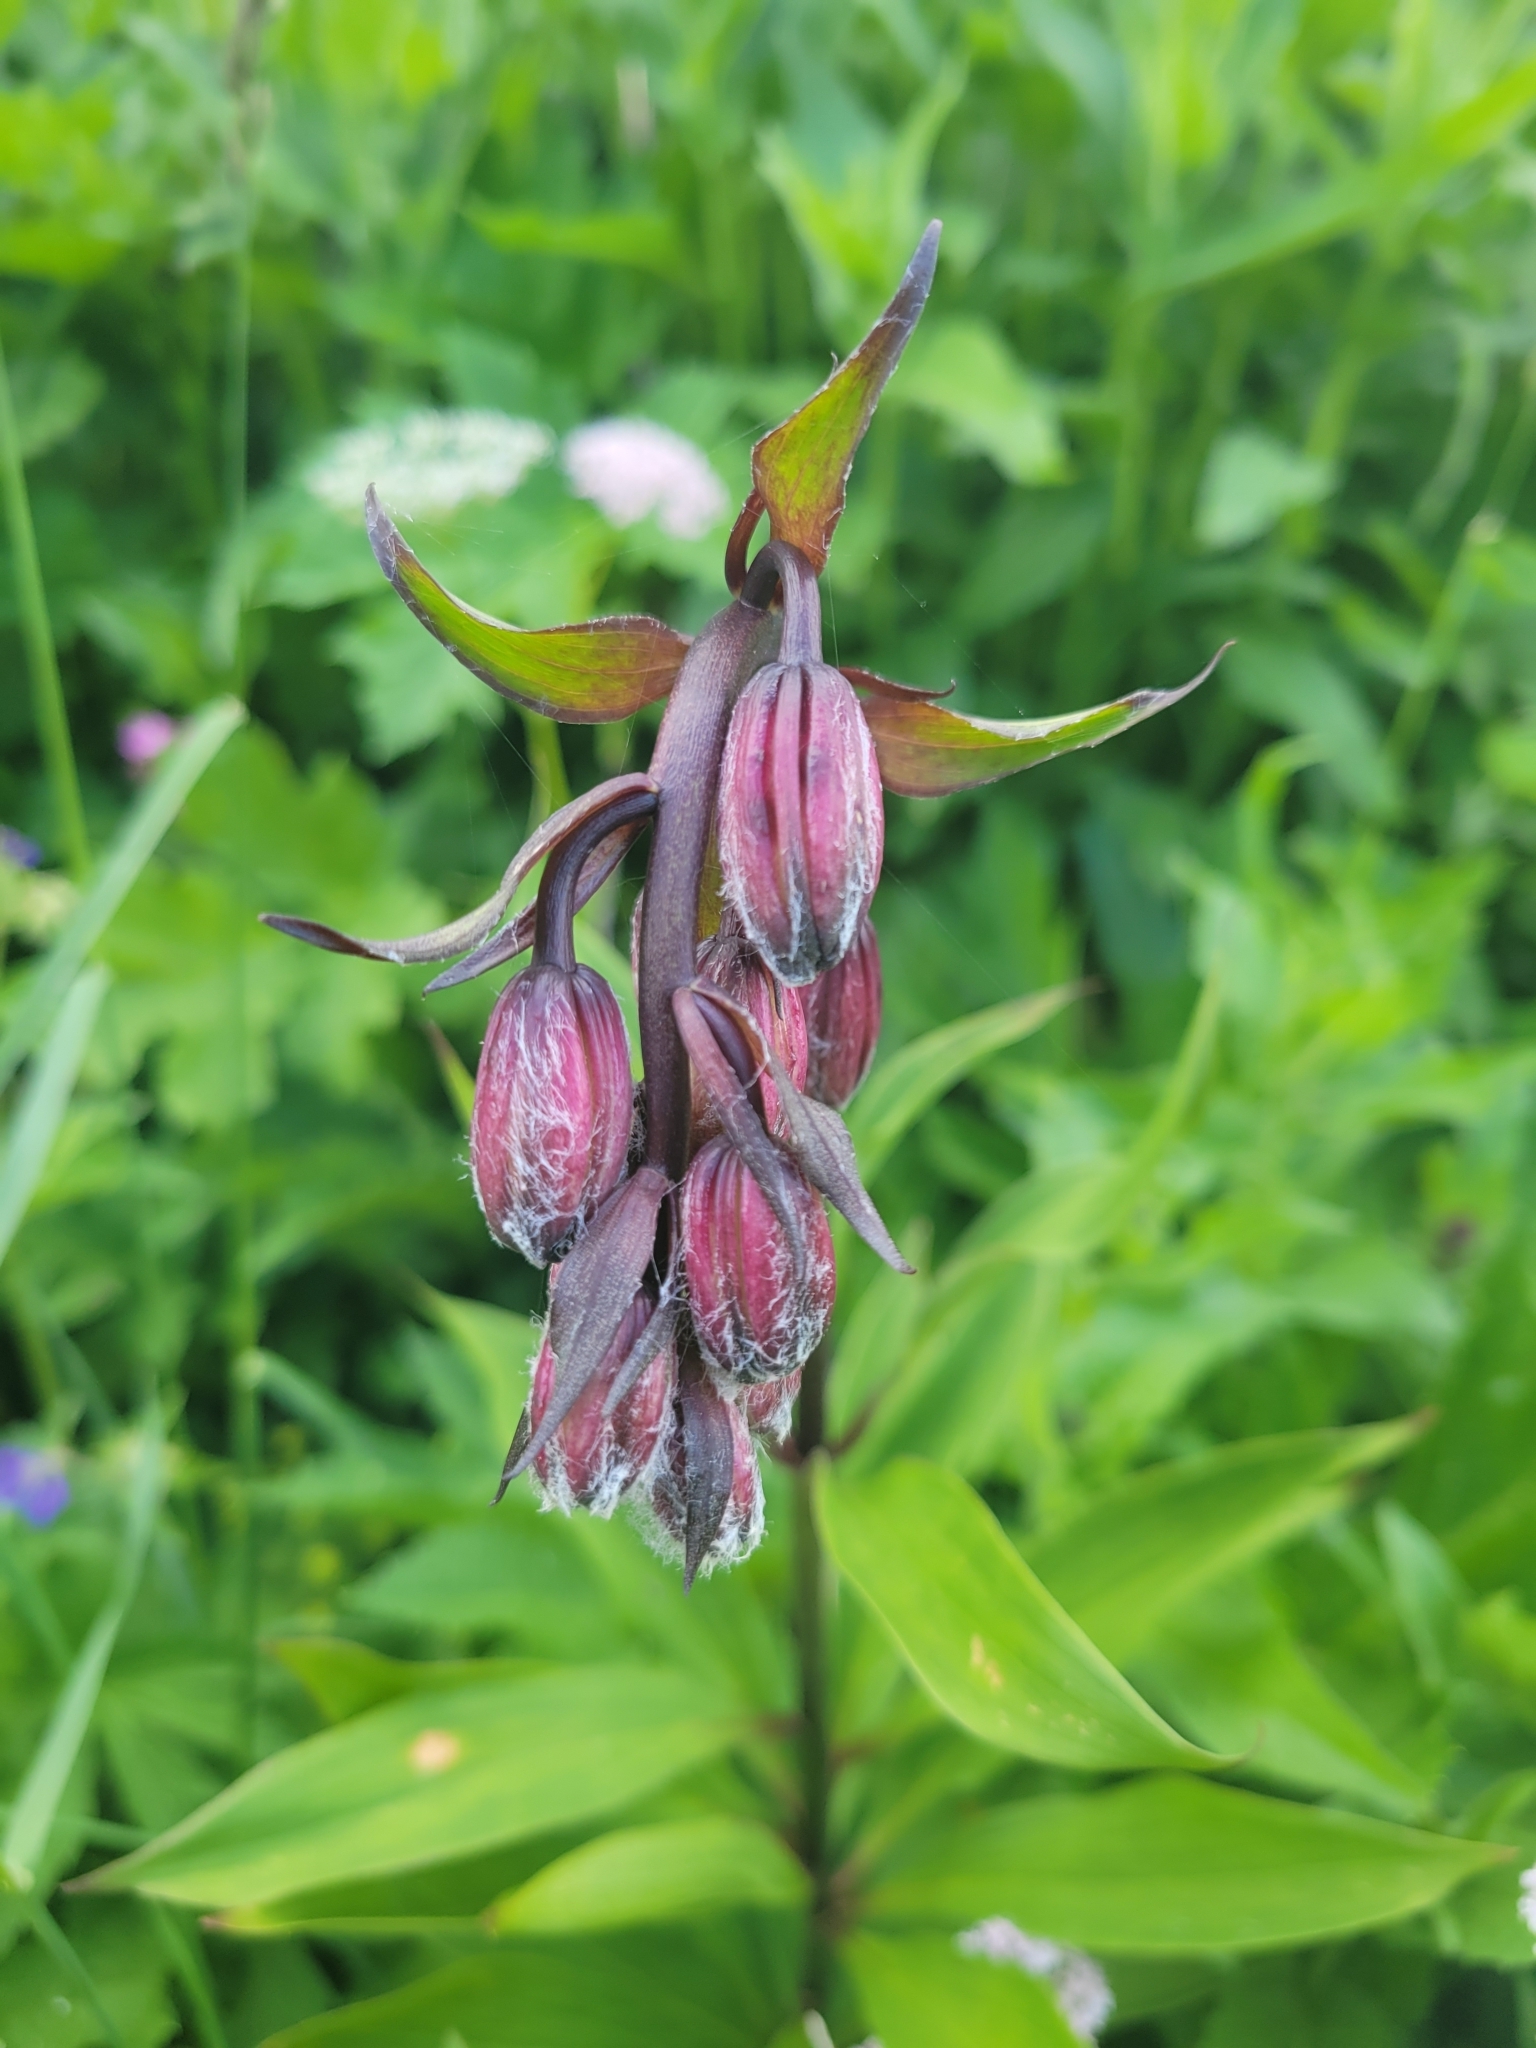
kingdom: Plantae
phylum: Tracheophyta
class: Liliopsida
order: Liliales
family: Liliaceae
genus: Lilium
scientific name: Lilium martagon
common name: Martagon lily
